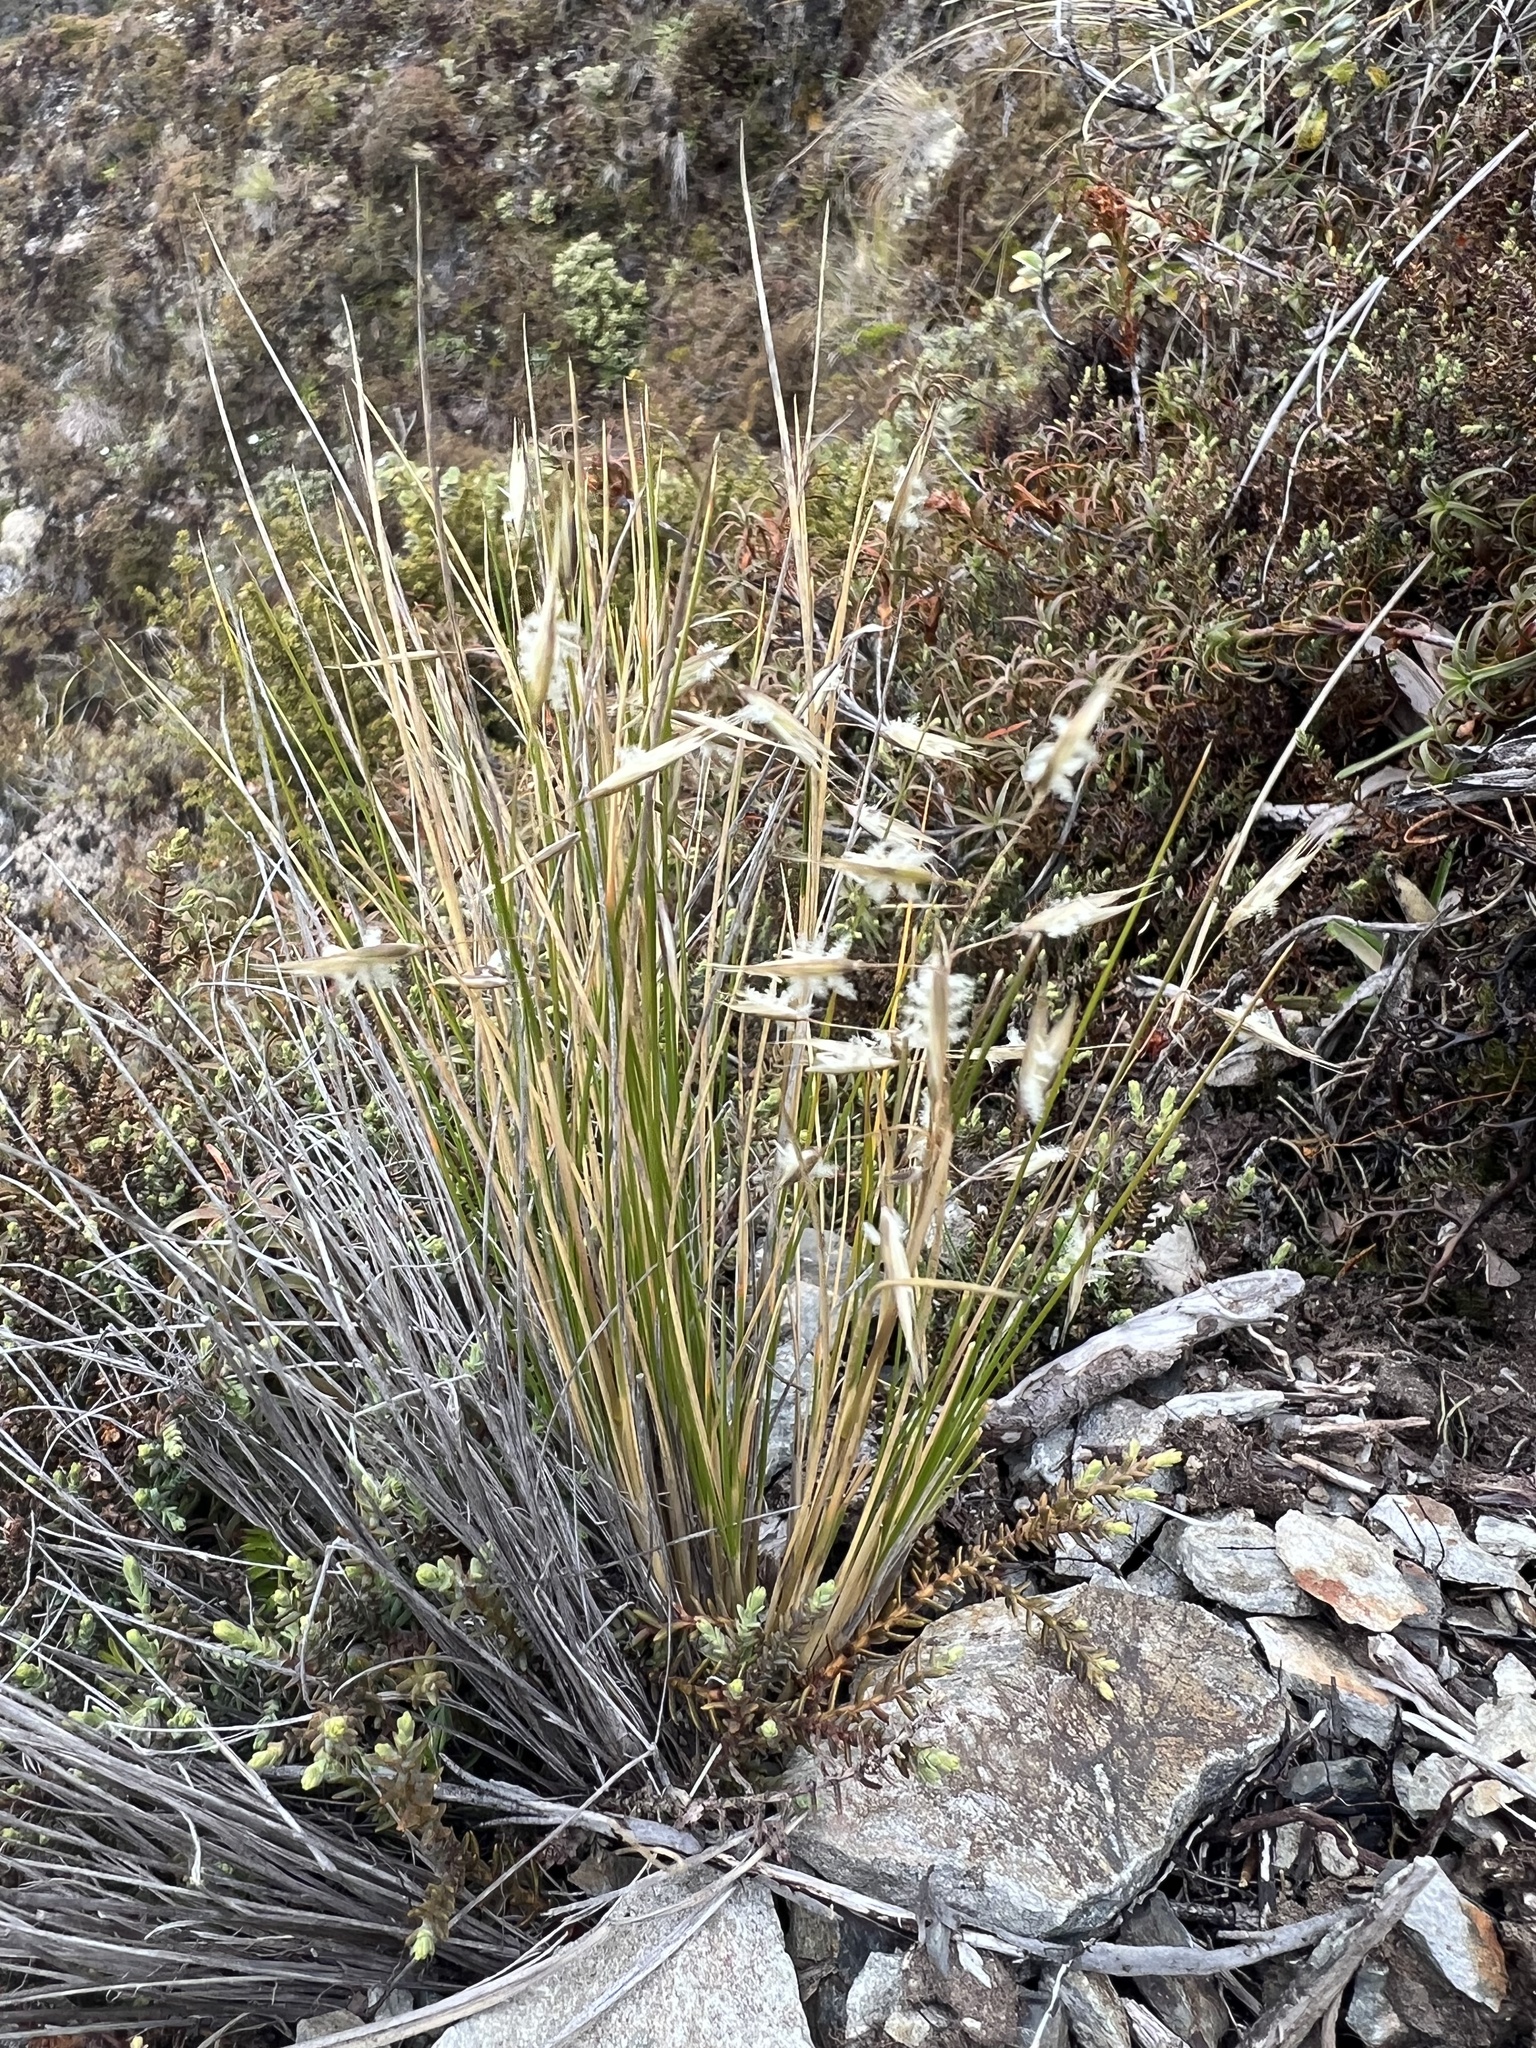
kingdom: Plantae
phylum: Tracheophyta
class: Liliopsida
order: Poales
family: Poaceae
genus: Rytidosperma
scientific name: Rytidosperma setifolium
